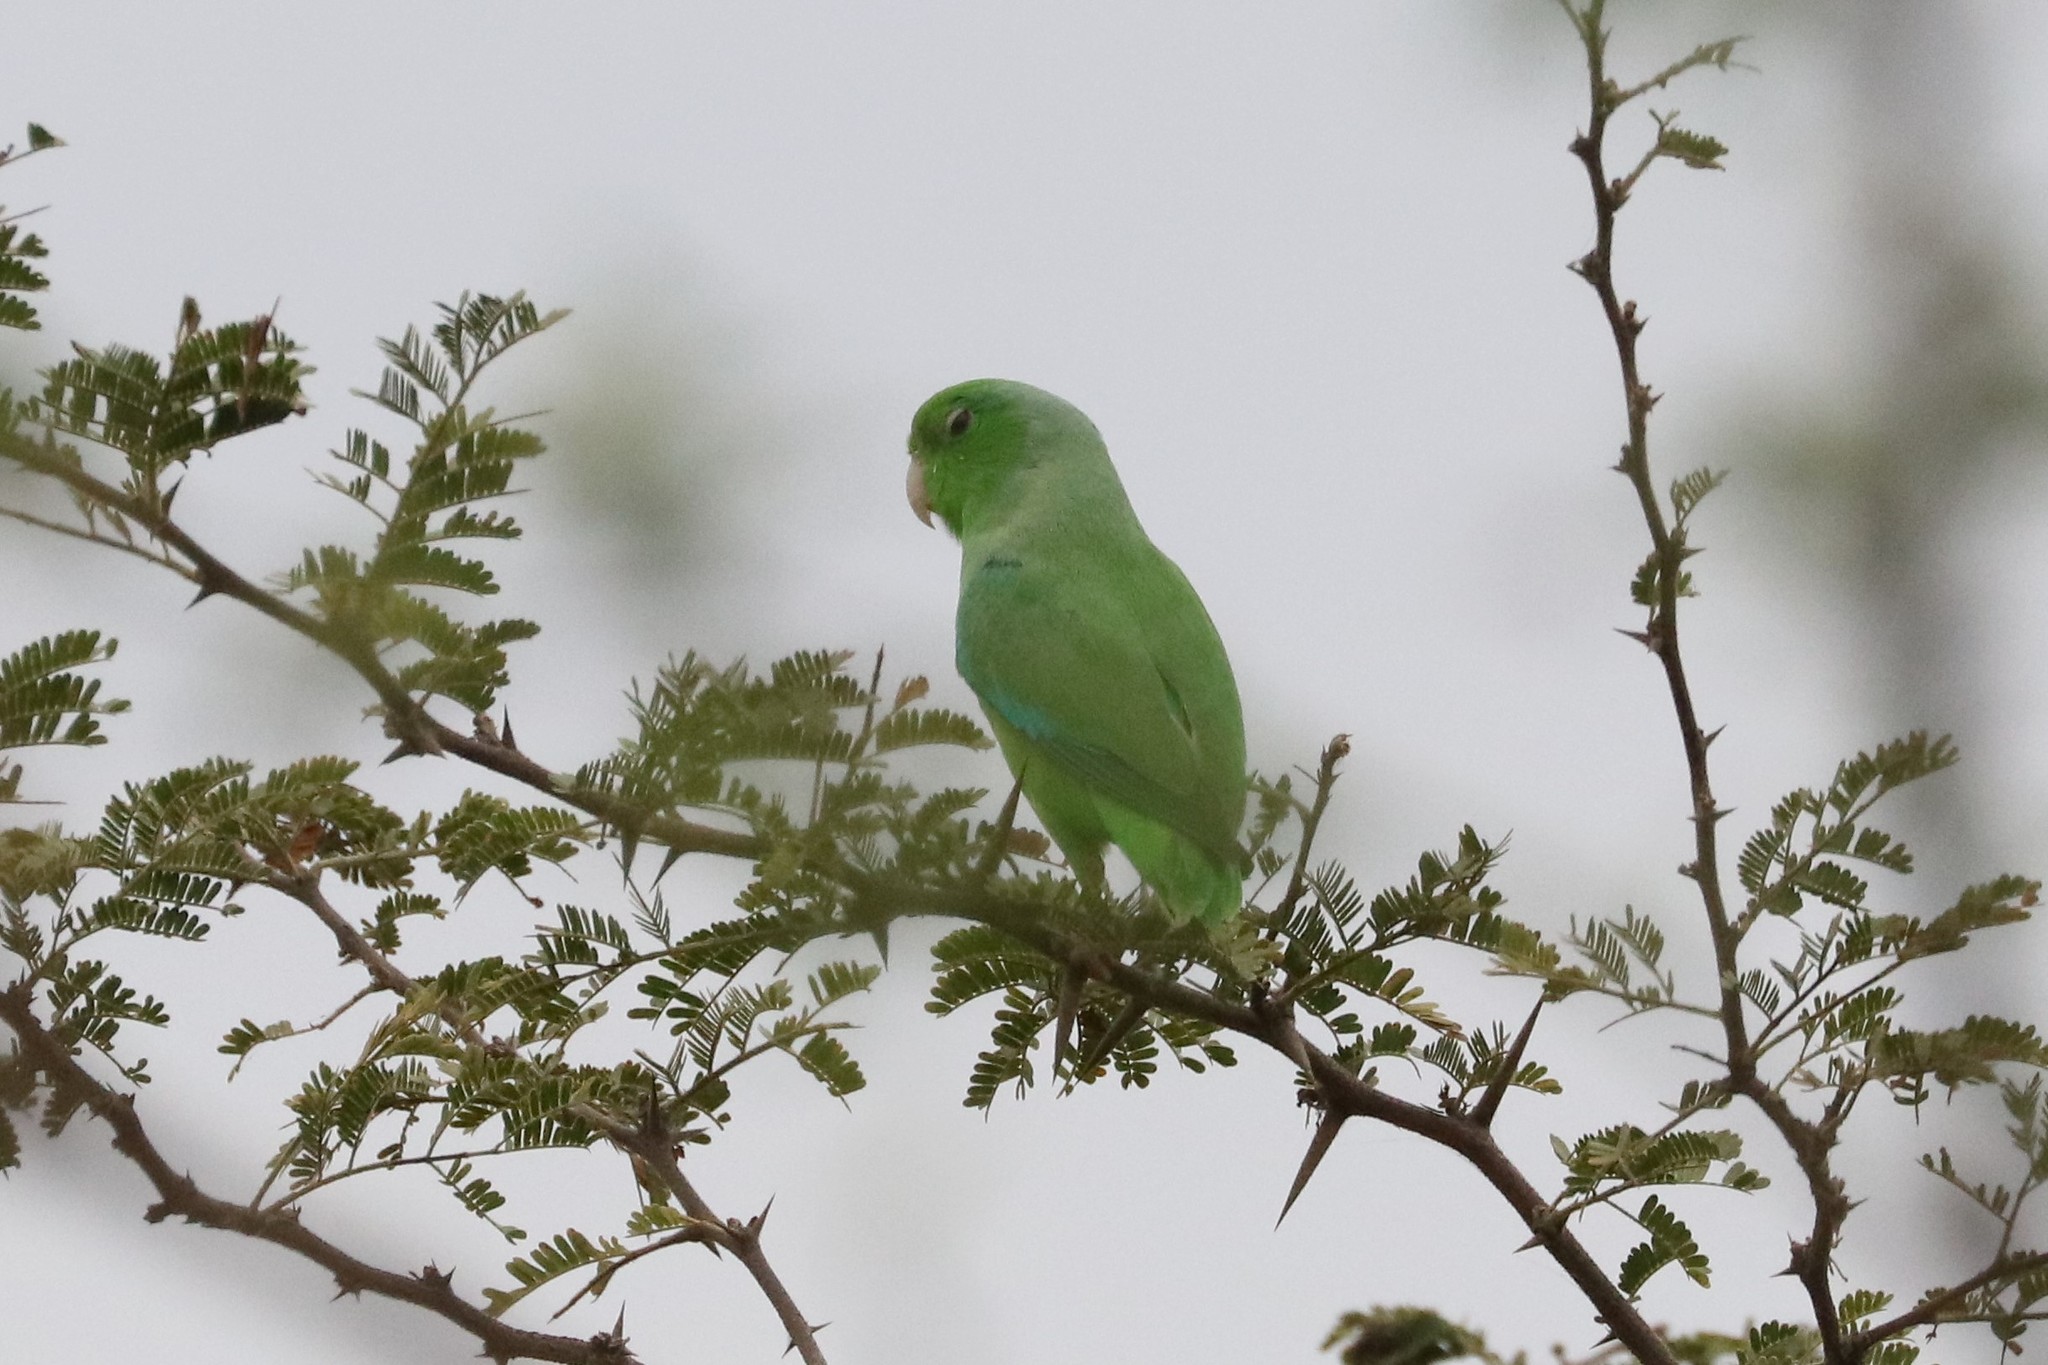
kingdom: Animalia
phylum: Chordata
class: Aves
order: Psittaciformes
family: Psittacidae
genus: Forpus
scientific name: Forpus passerinus
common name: Green-rumped parrotlet
